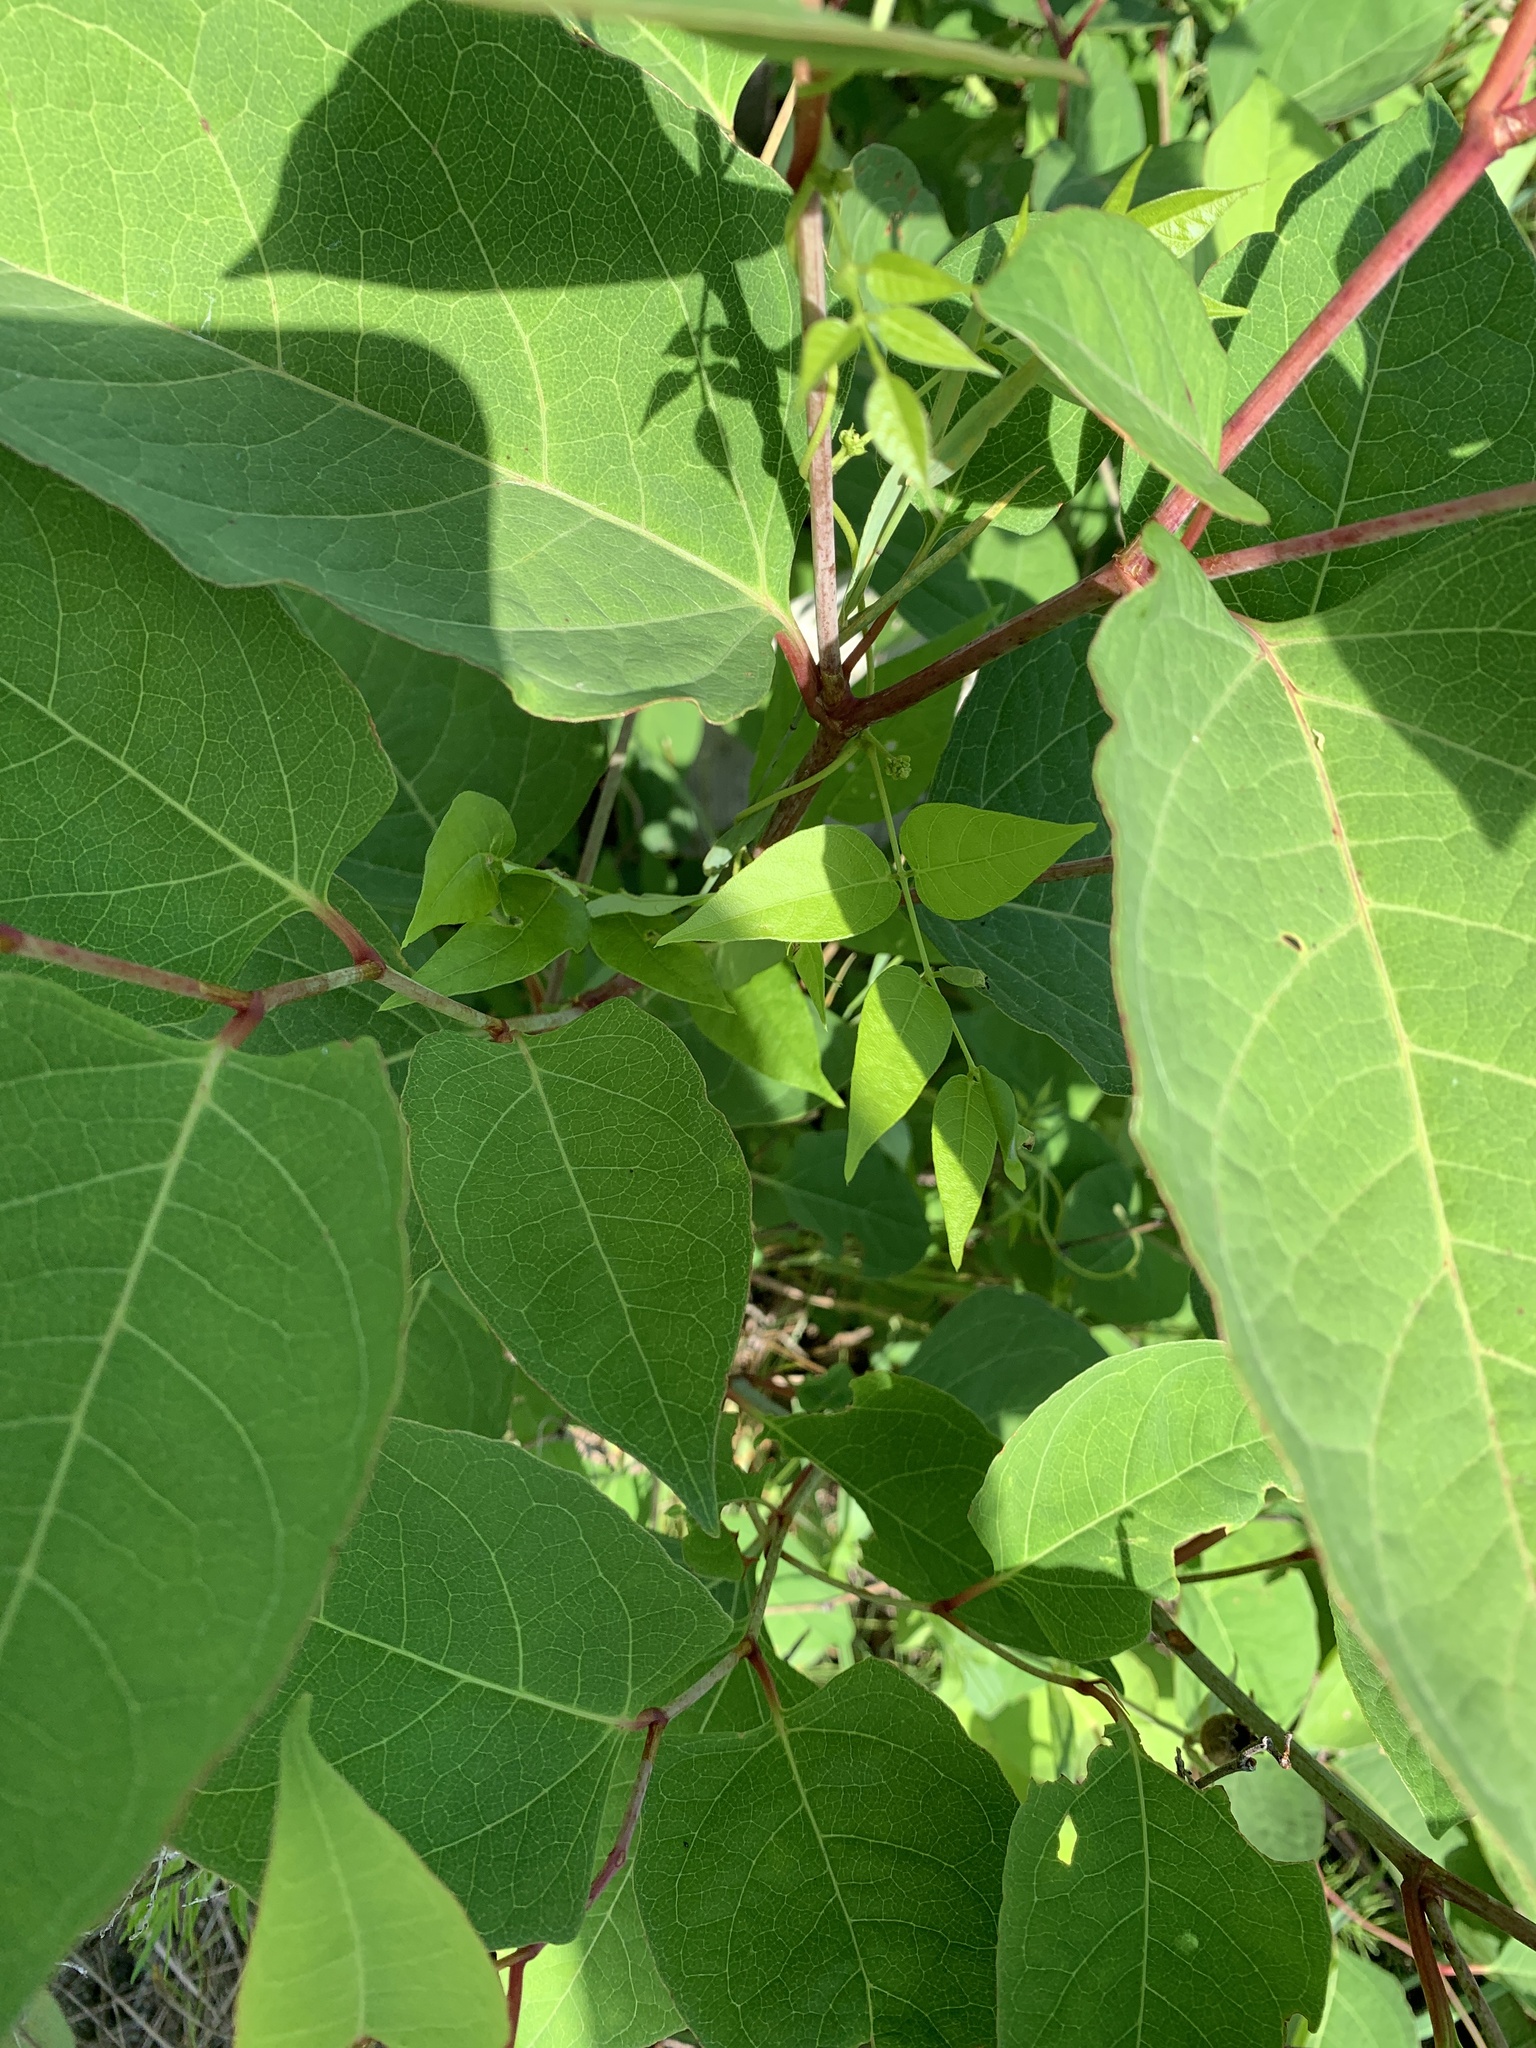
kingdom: Plantae
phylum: Tracheophyta
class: Magnoliopsida
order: Fabales
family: Fabaceae
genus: Apios
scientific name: Apios americana
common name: American potato-bean
